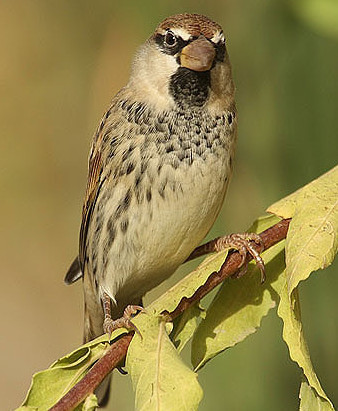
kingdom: Animalia
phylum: Chordata
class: Aves
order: Passeriformes
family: Passeridae
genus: Passer
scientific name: Passer hispaniolensis
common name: Spanish sparrow
